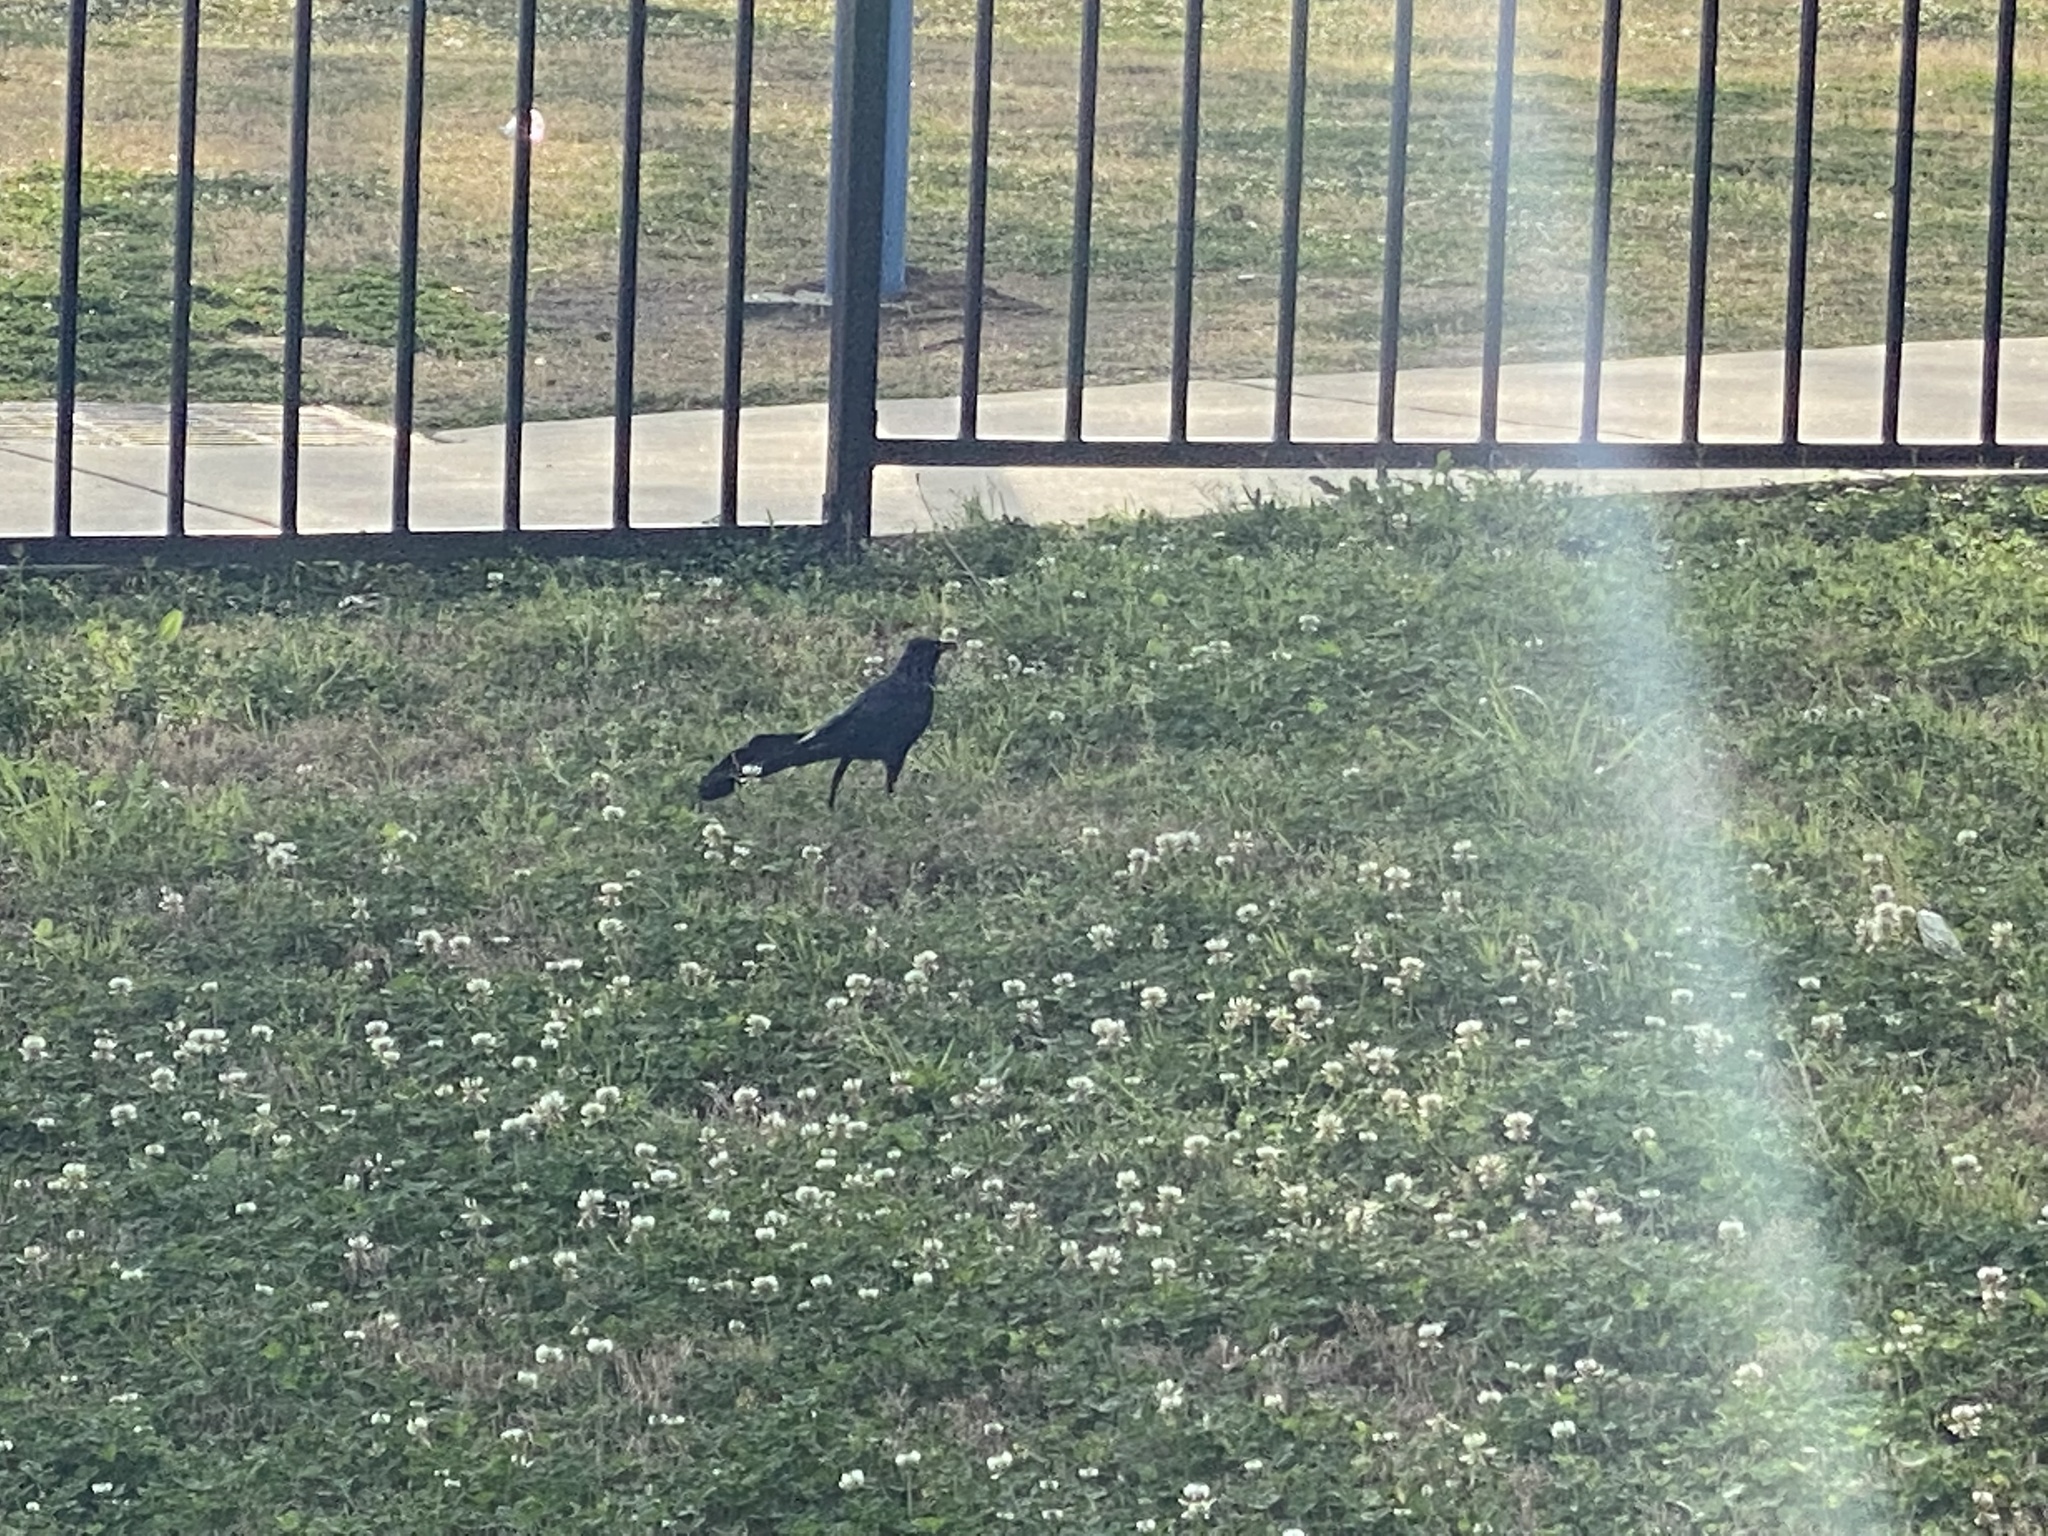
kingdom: Animalia
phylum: Chordata
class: Aves
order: Passeriformes
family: Icteridae
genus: Quiscalus
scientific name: Quiscalus mexicanus
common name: Great-tailed grackle
